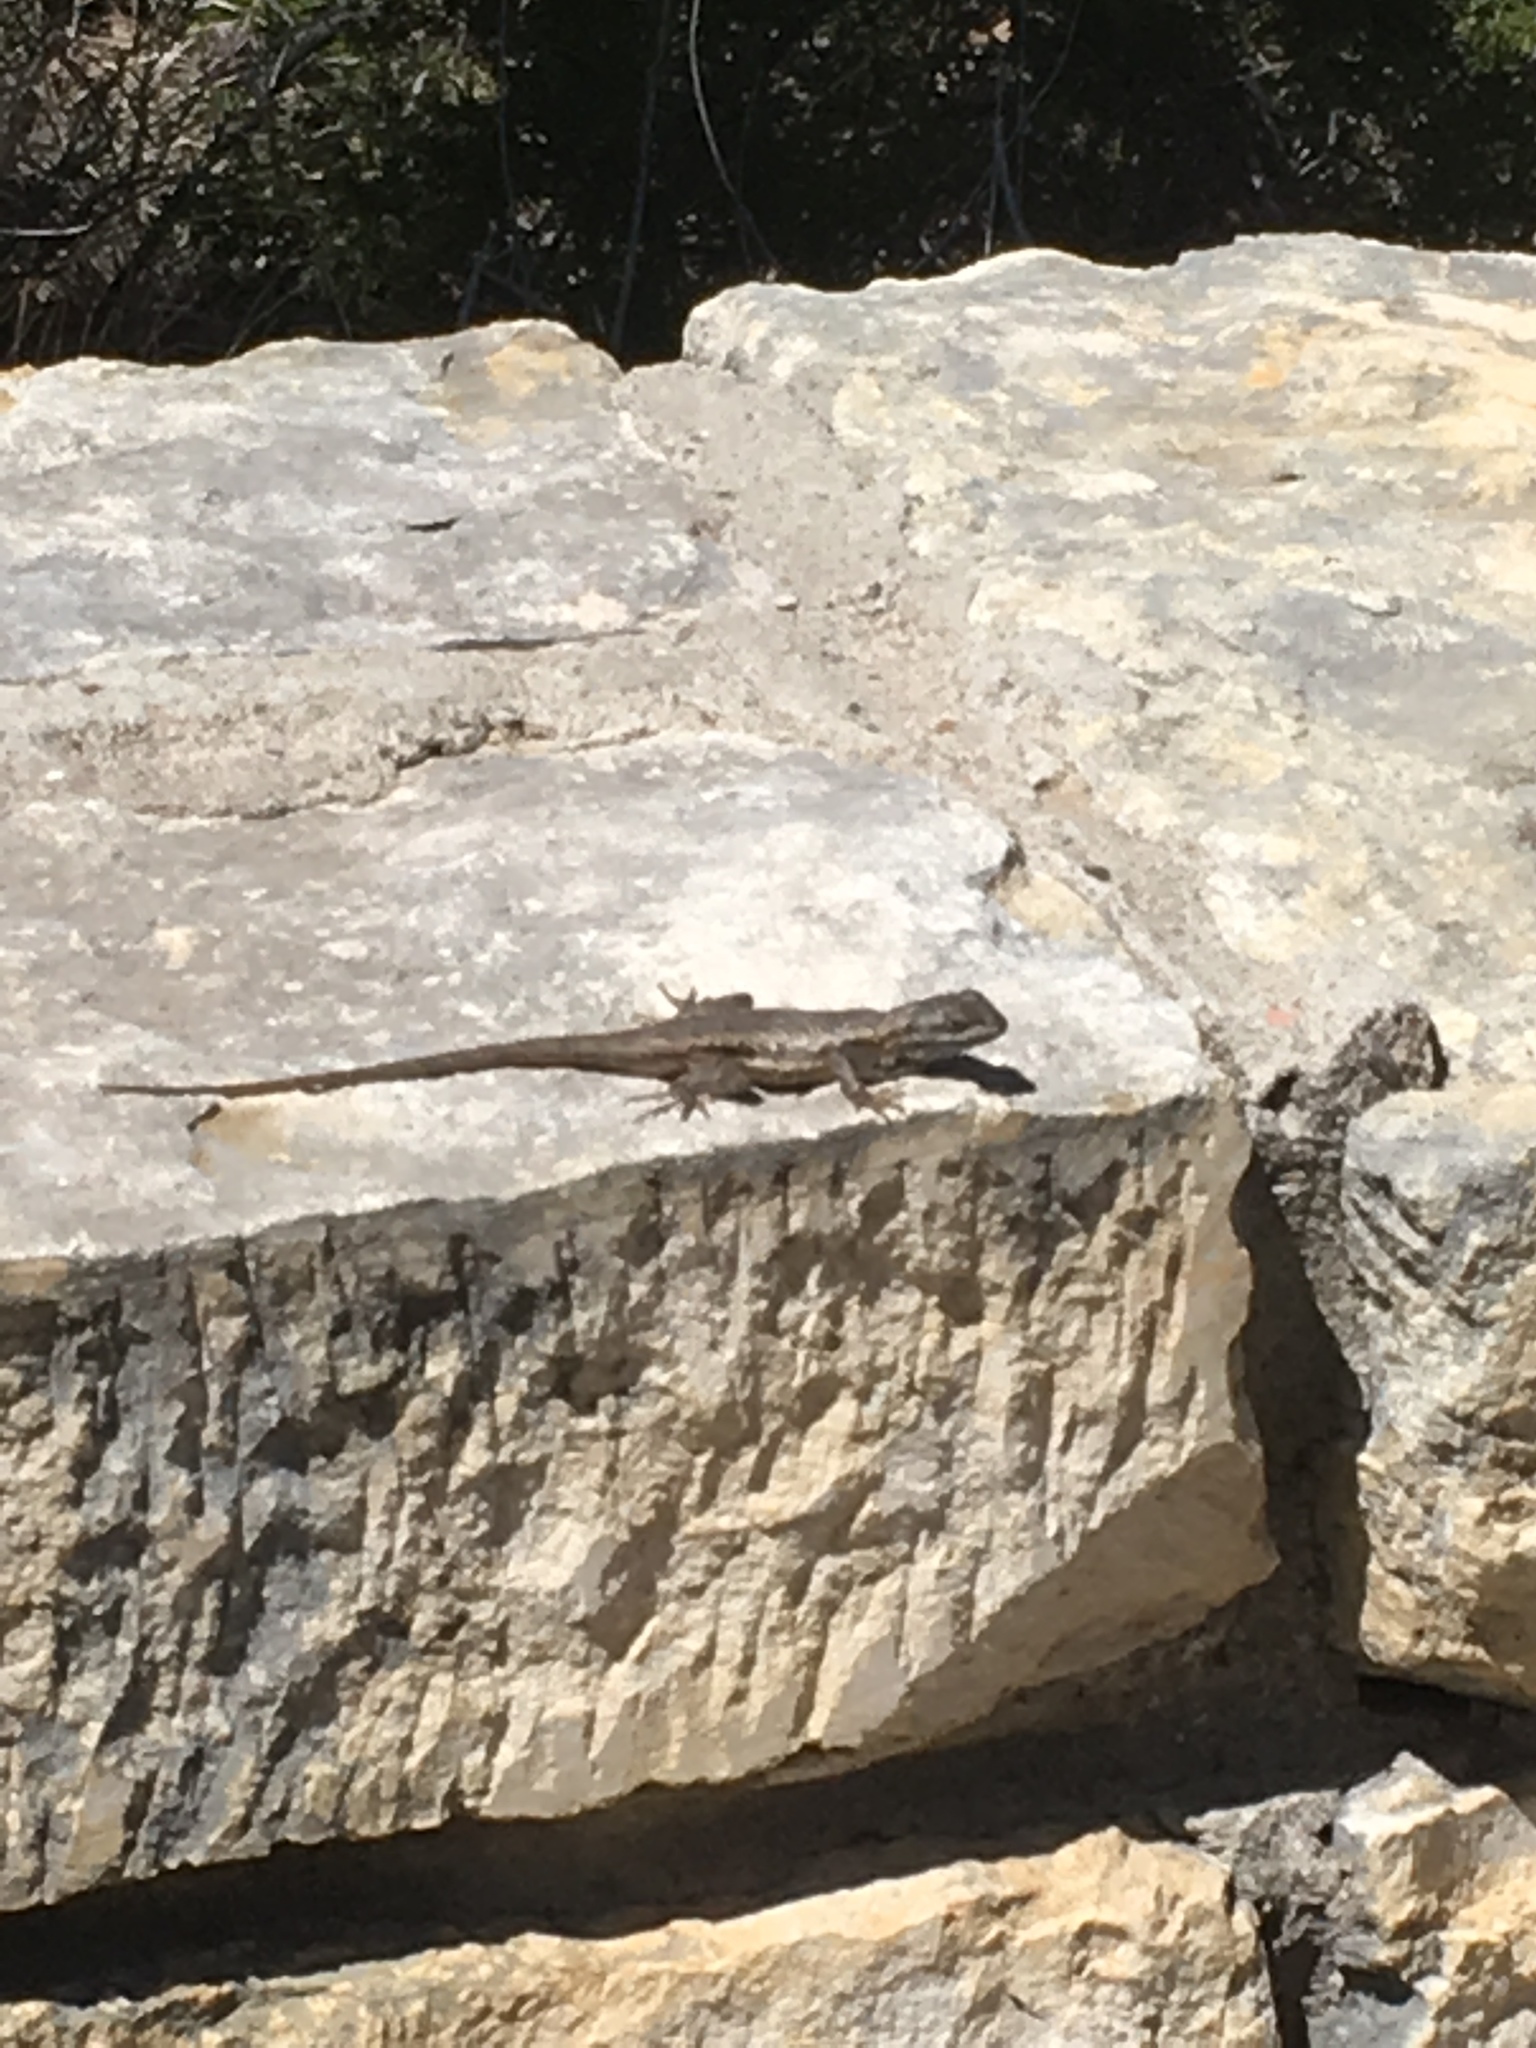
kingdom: Animalia
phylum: Chordata
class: Squamata
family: Phrynosomatidae
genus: Sceloporus
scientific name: Sceloporus cowlesi
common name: White sands prairie lizard
